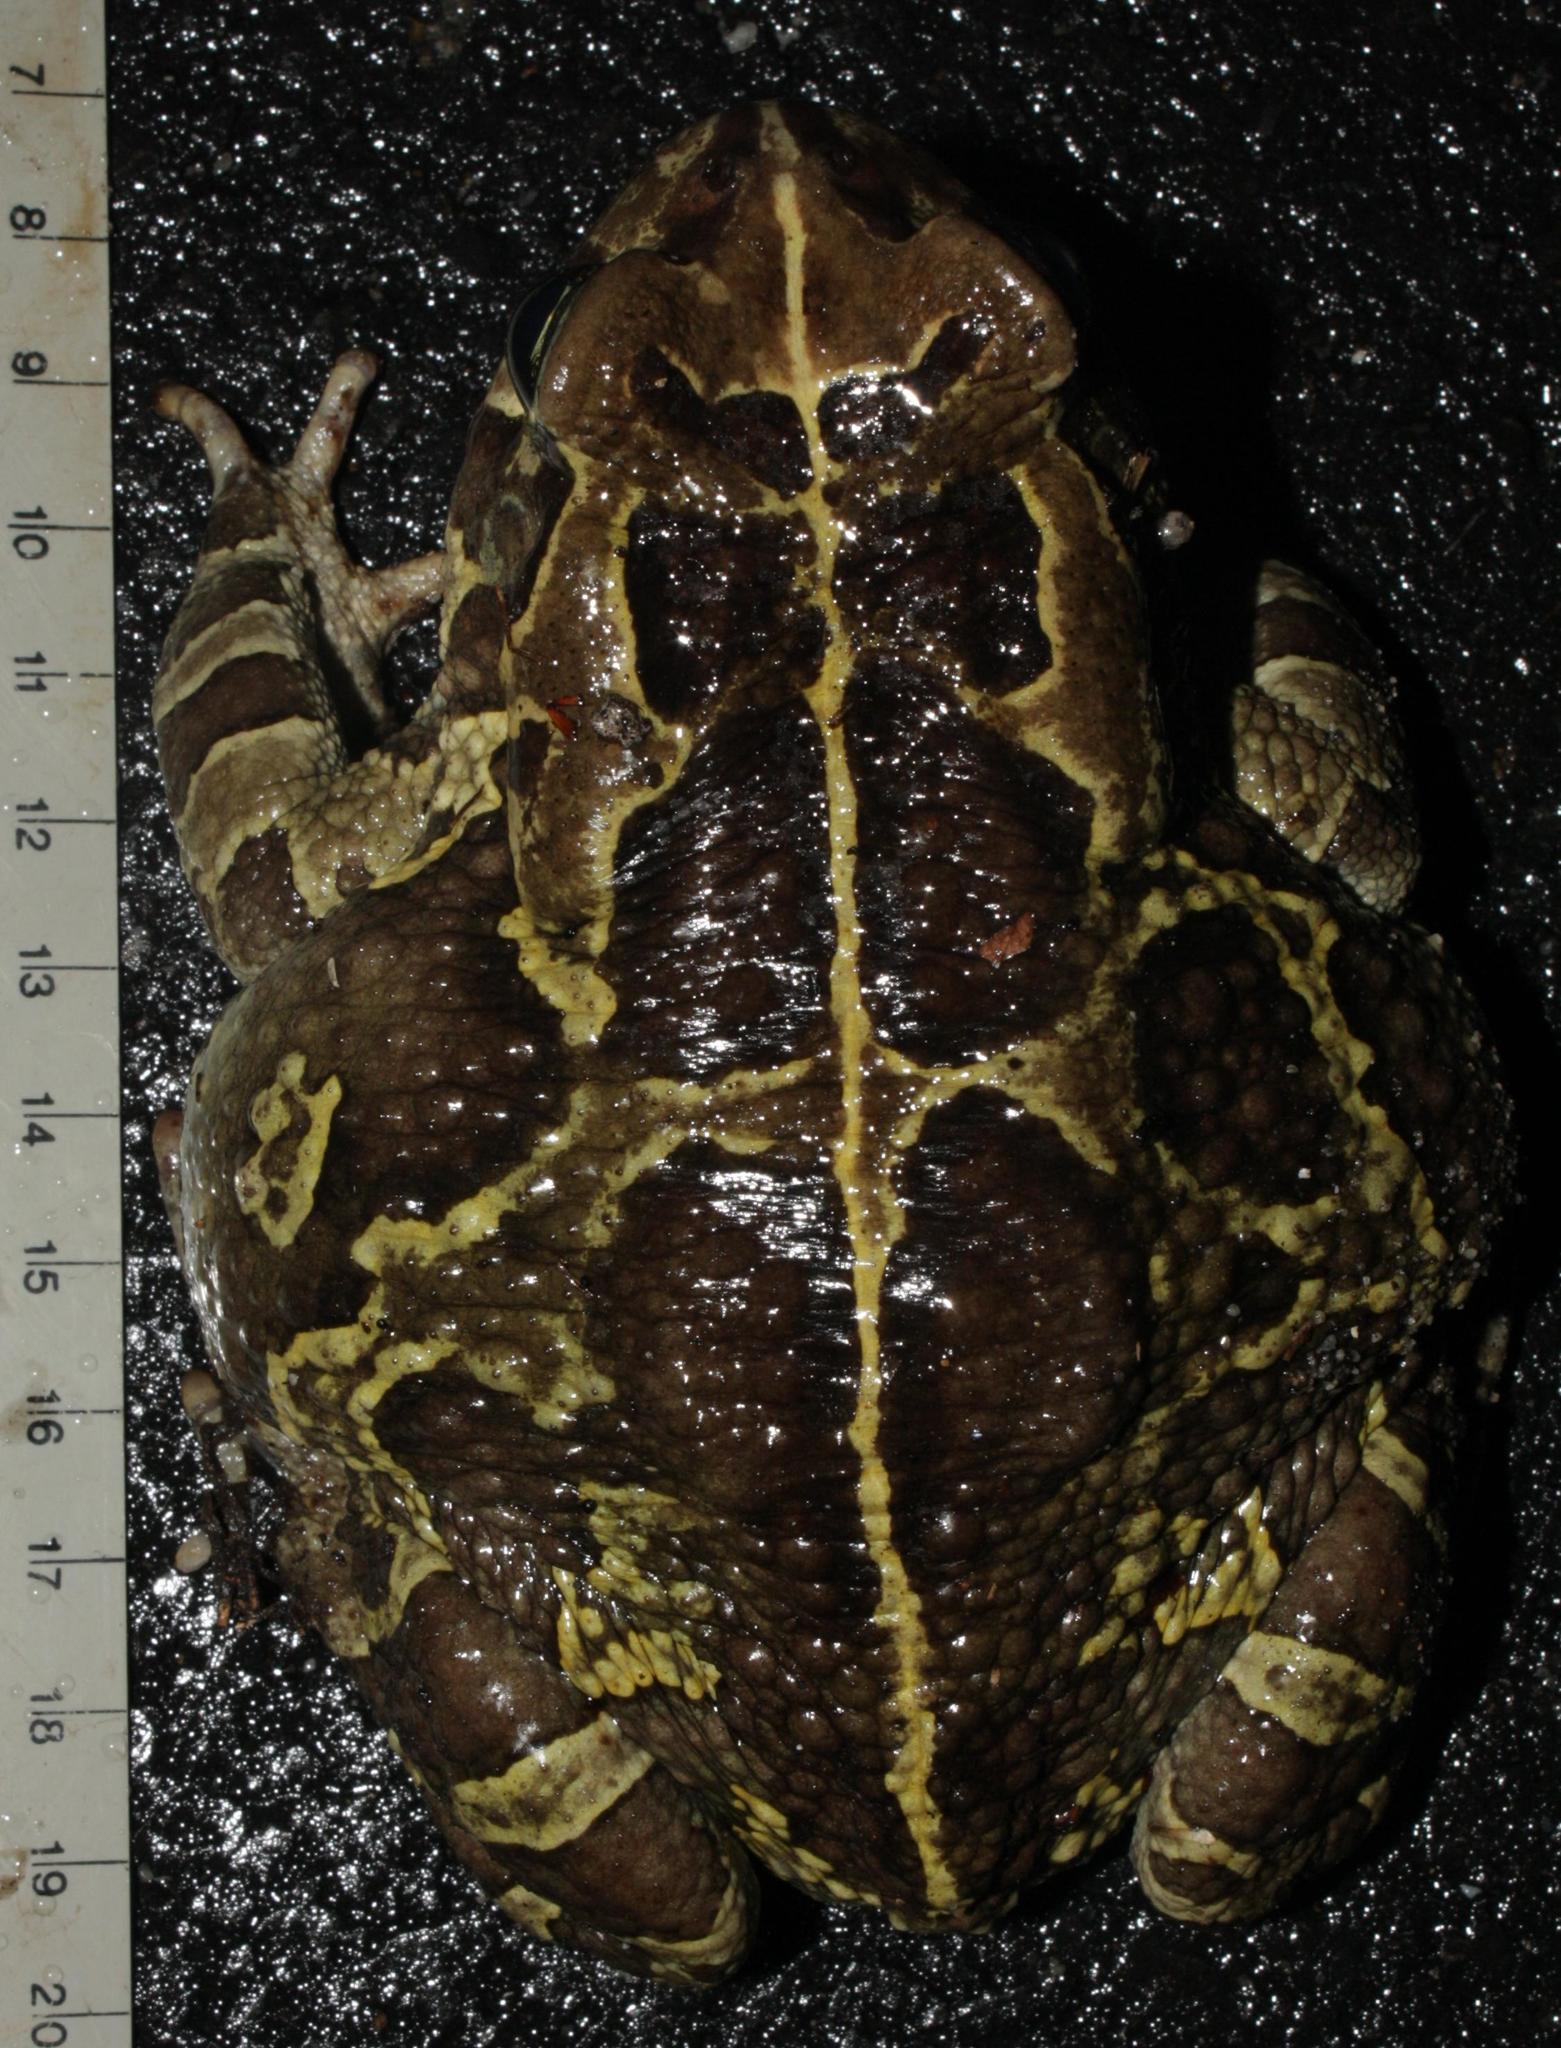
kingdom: Animalia
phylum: Chordata
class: Amphibia
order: Anura
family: Bufonidae
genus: Sclerophrys
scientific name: Sclerophrys pantherina
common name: Panther toad
